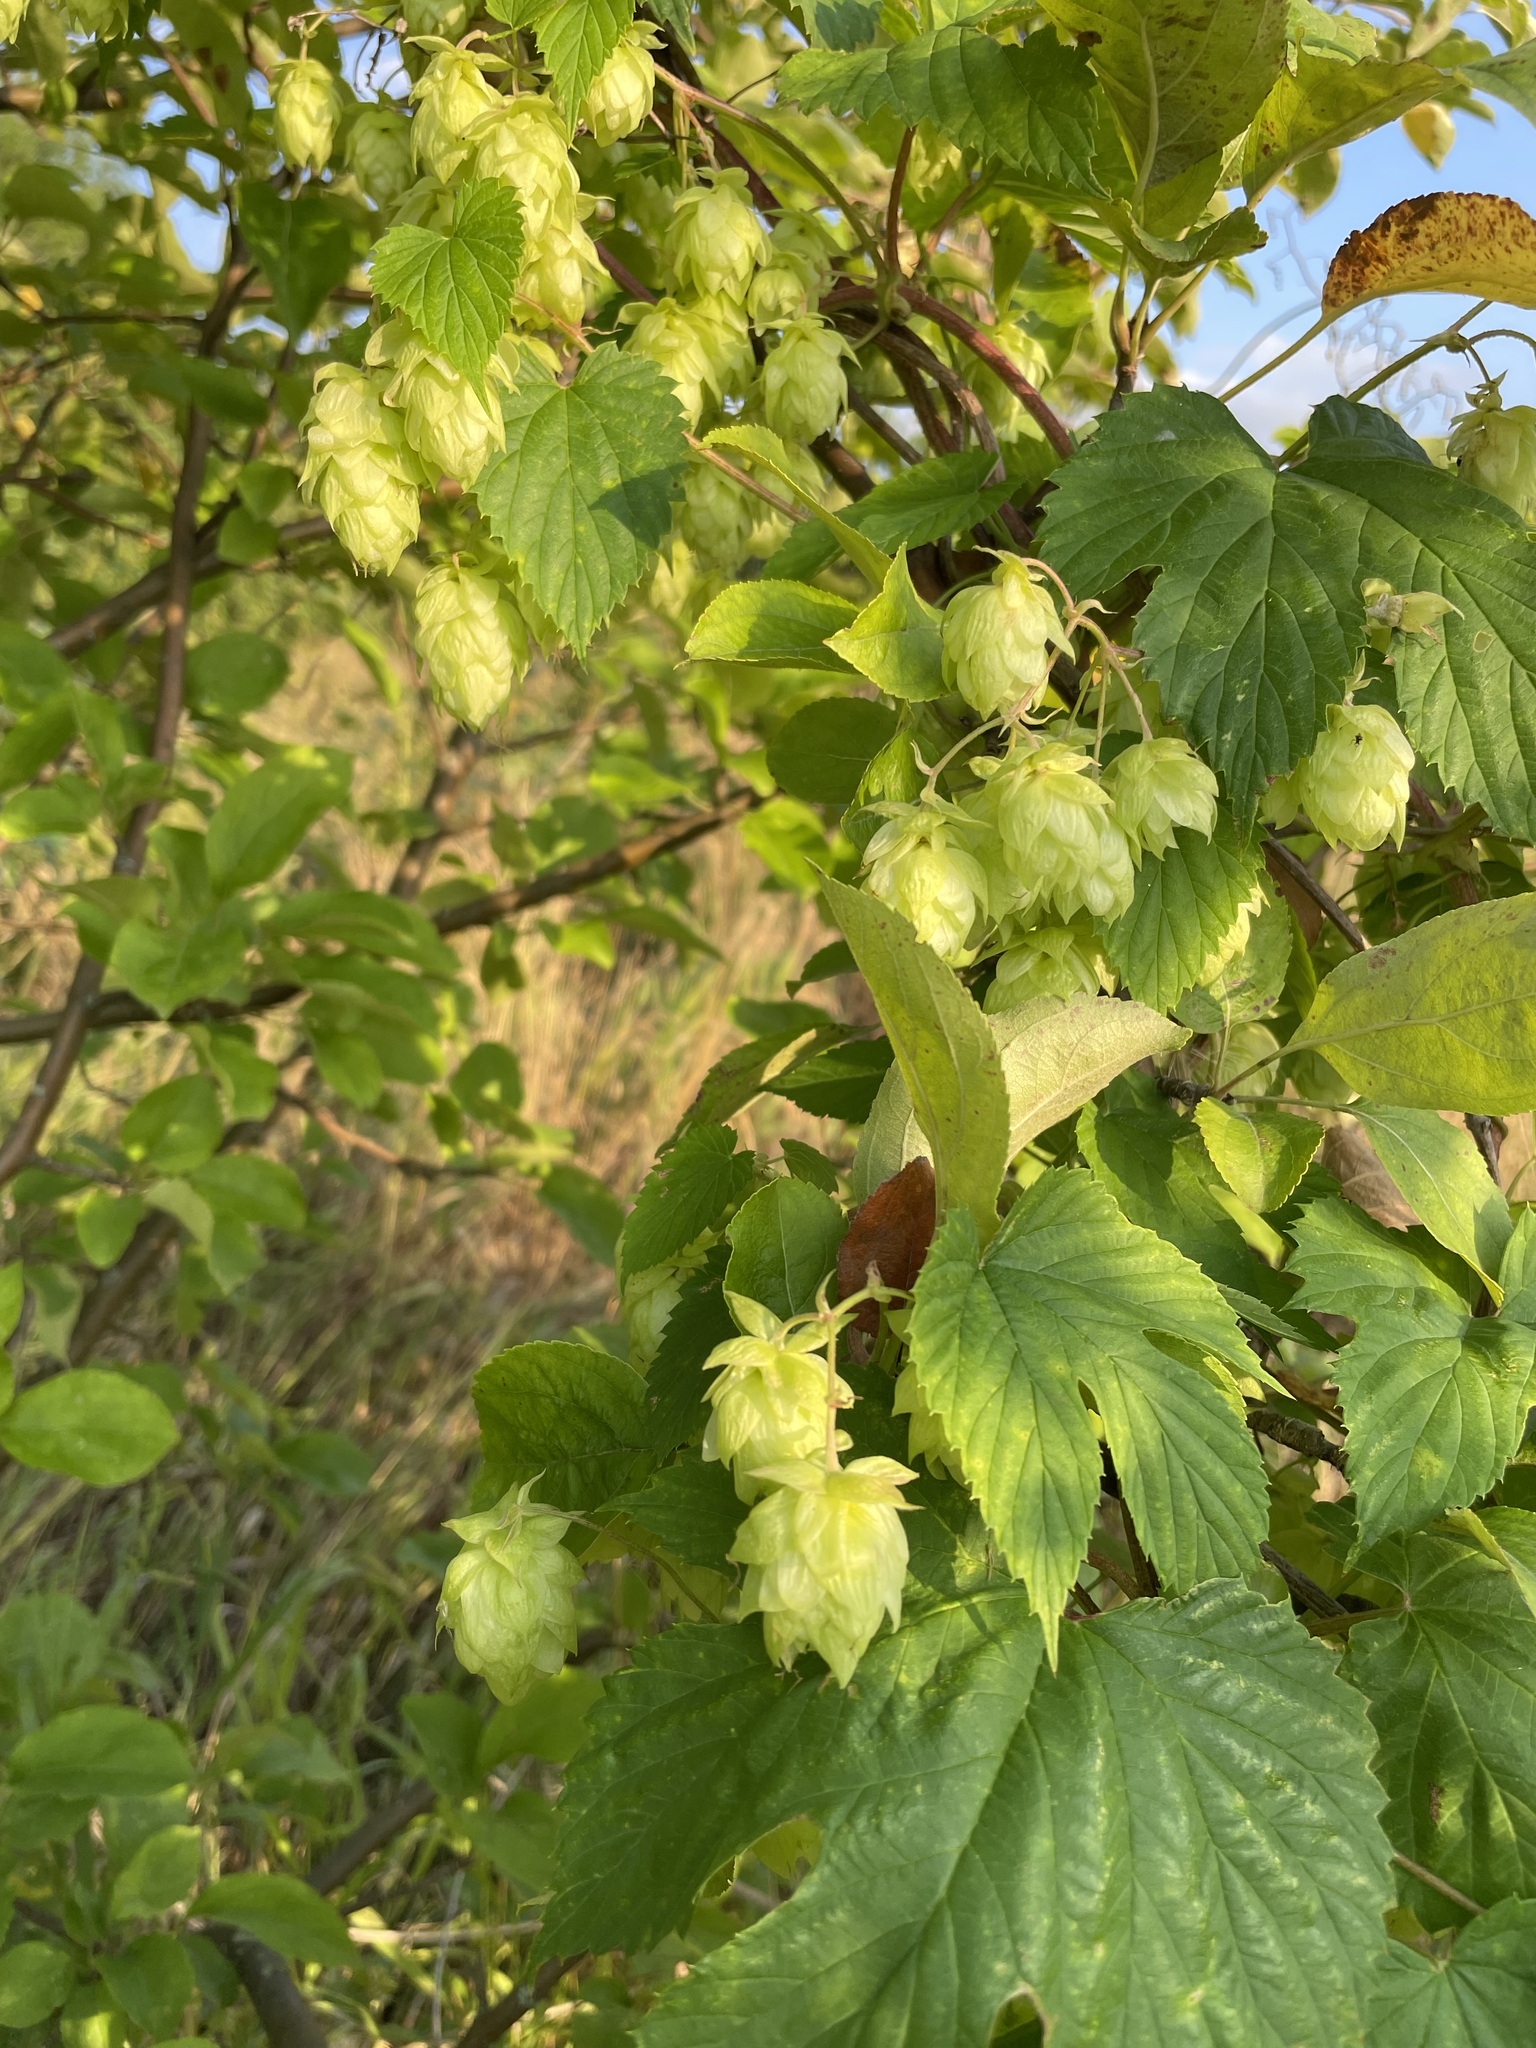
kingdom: Plantae
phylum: Tracheophyta
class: Magnoliopsida
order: Rosales
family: Cannabaceae
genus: Humulus
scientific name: Humulus lupulus
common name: Hop
